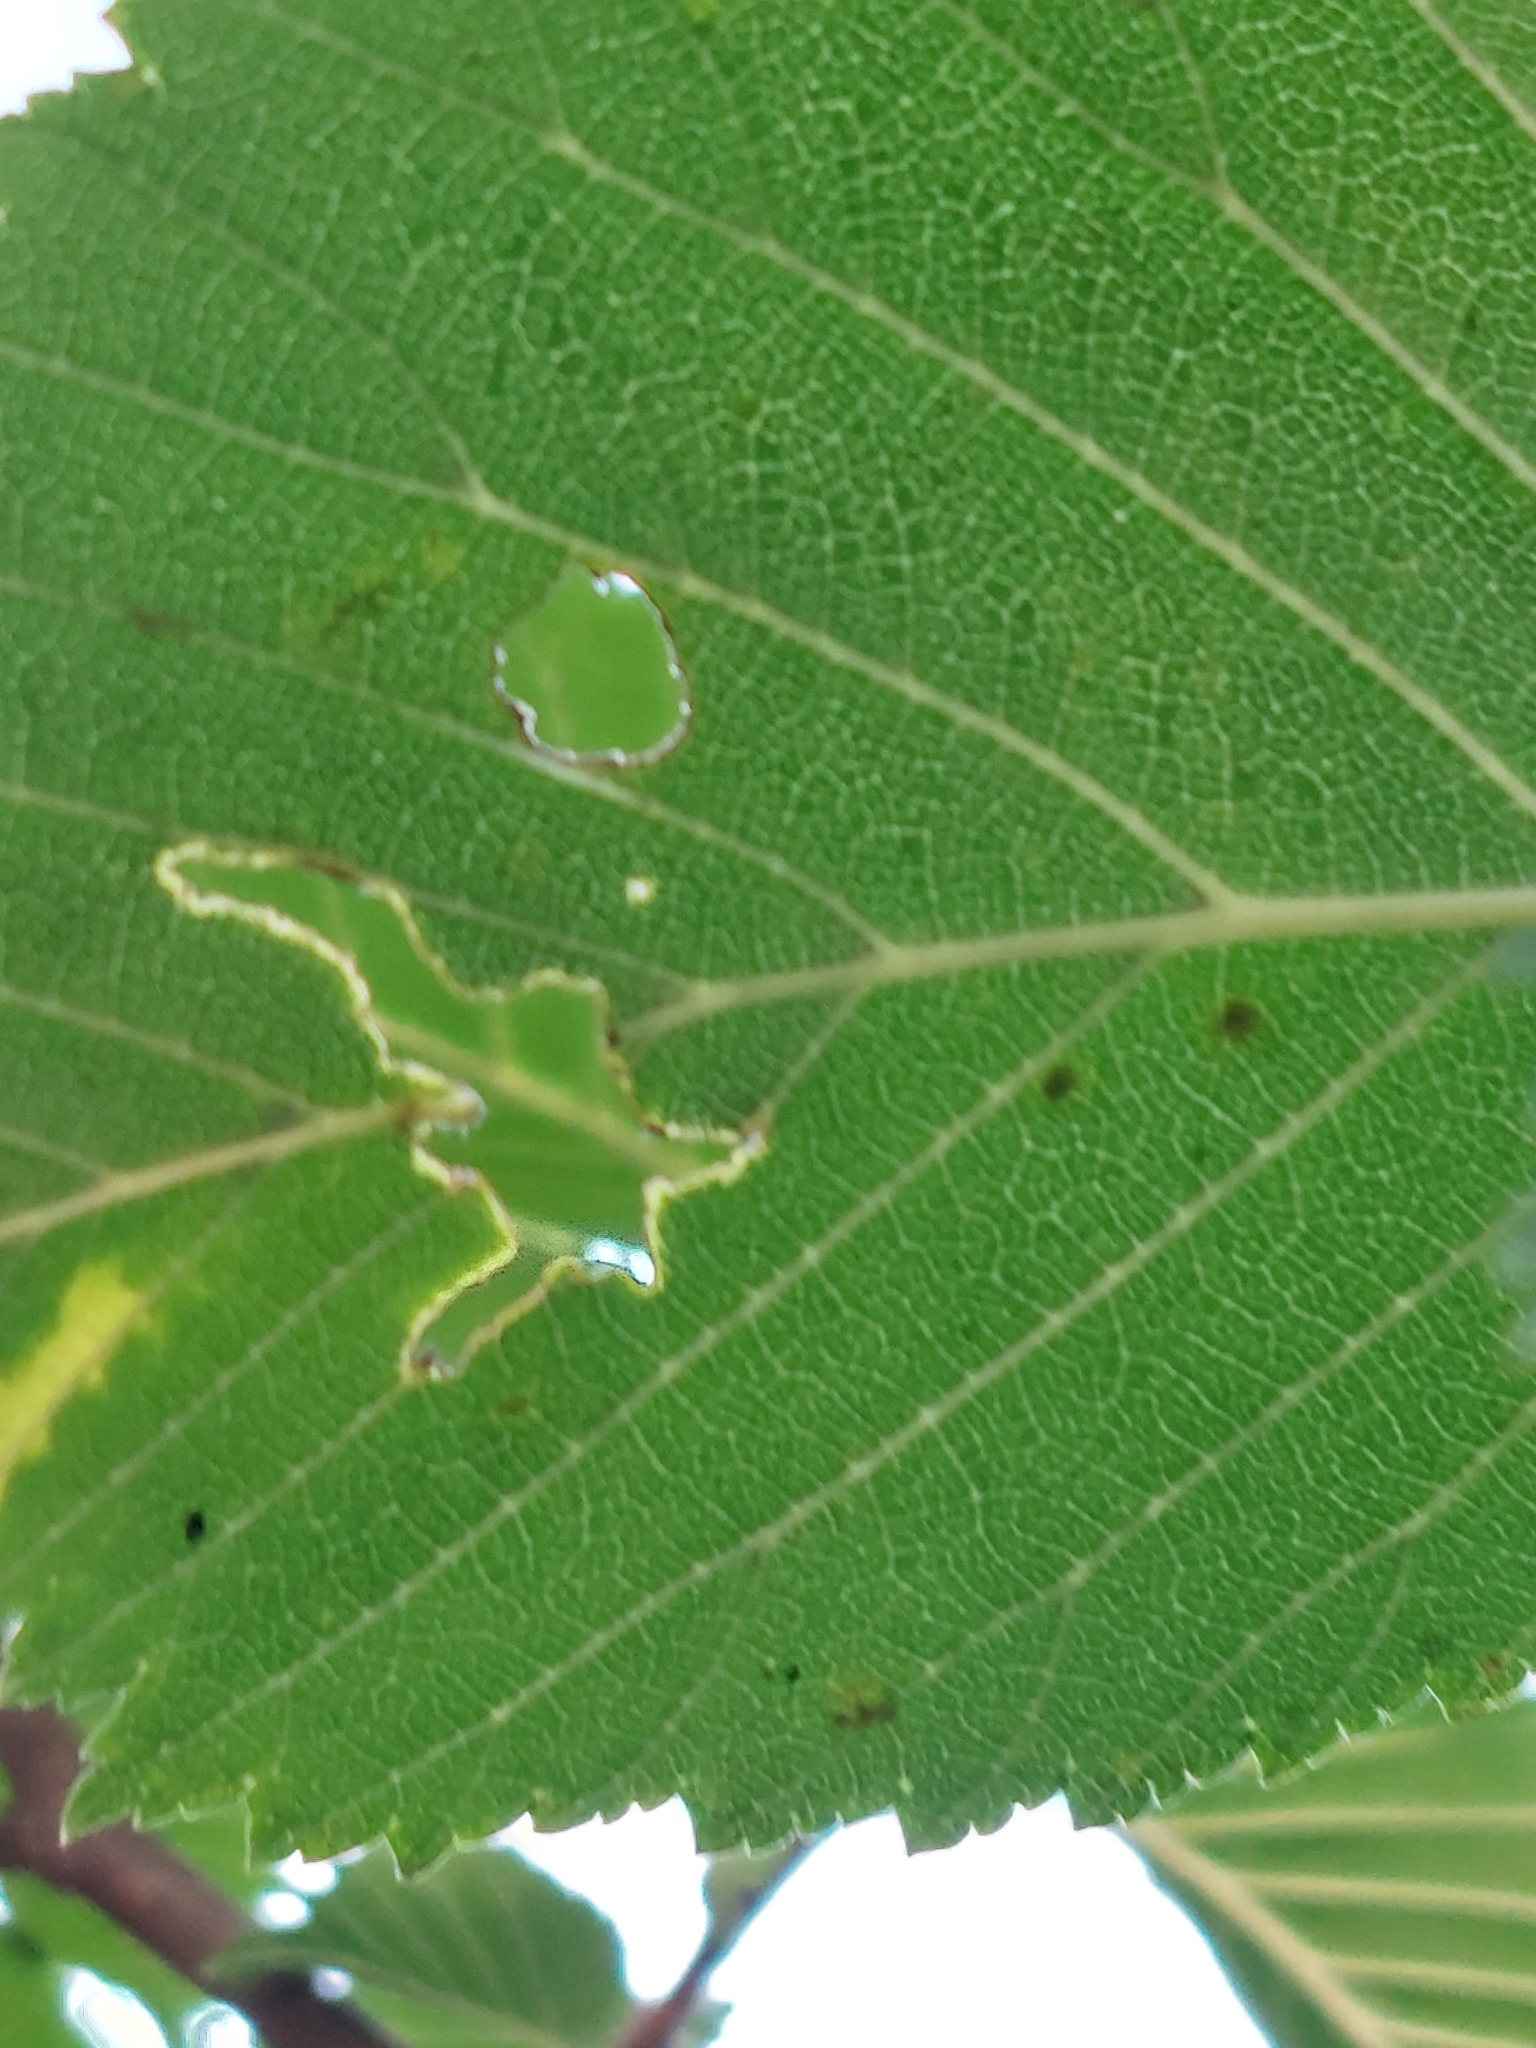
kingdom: Animalia
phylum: Arthropoda
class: Arachnida
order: Trombidiformes
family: Eriophyidae
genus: Aceria
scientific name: Aceria filiformis
